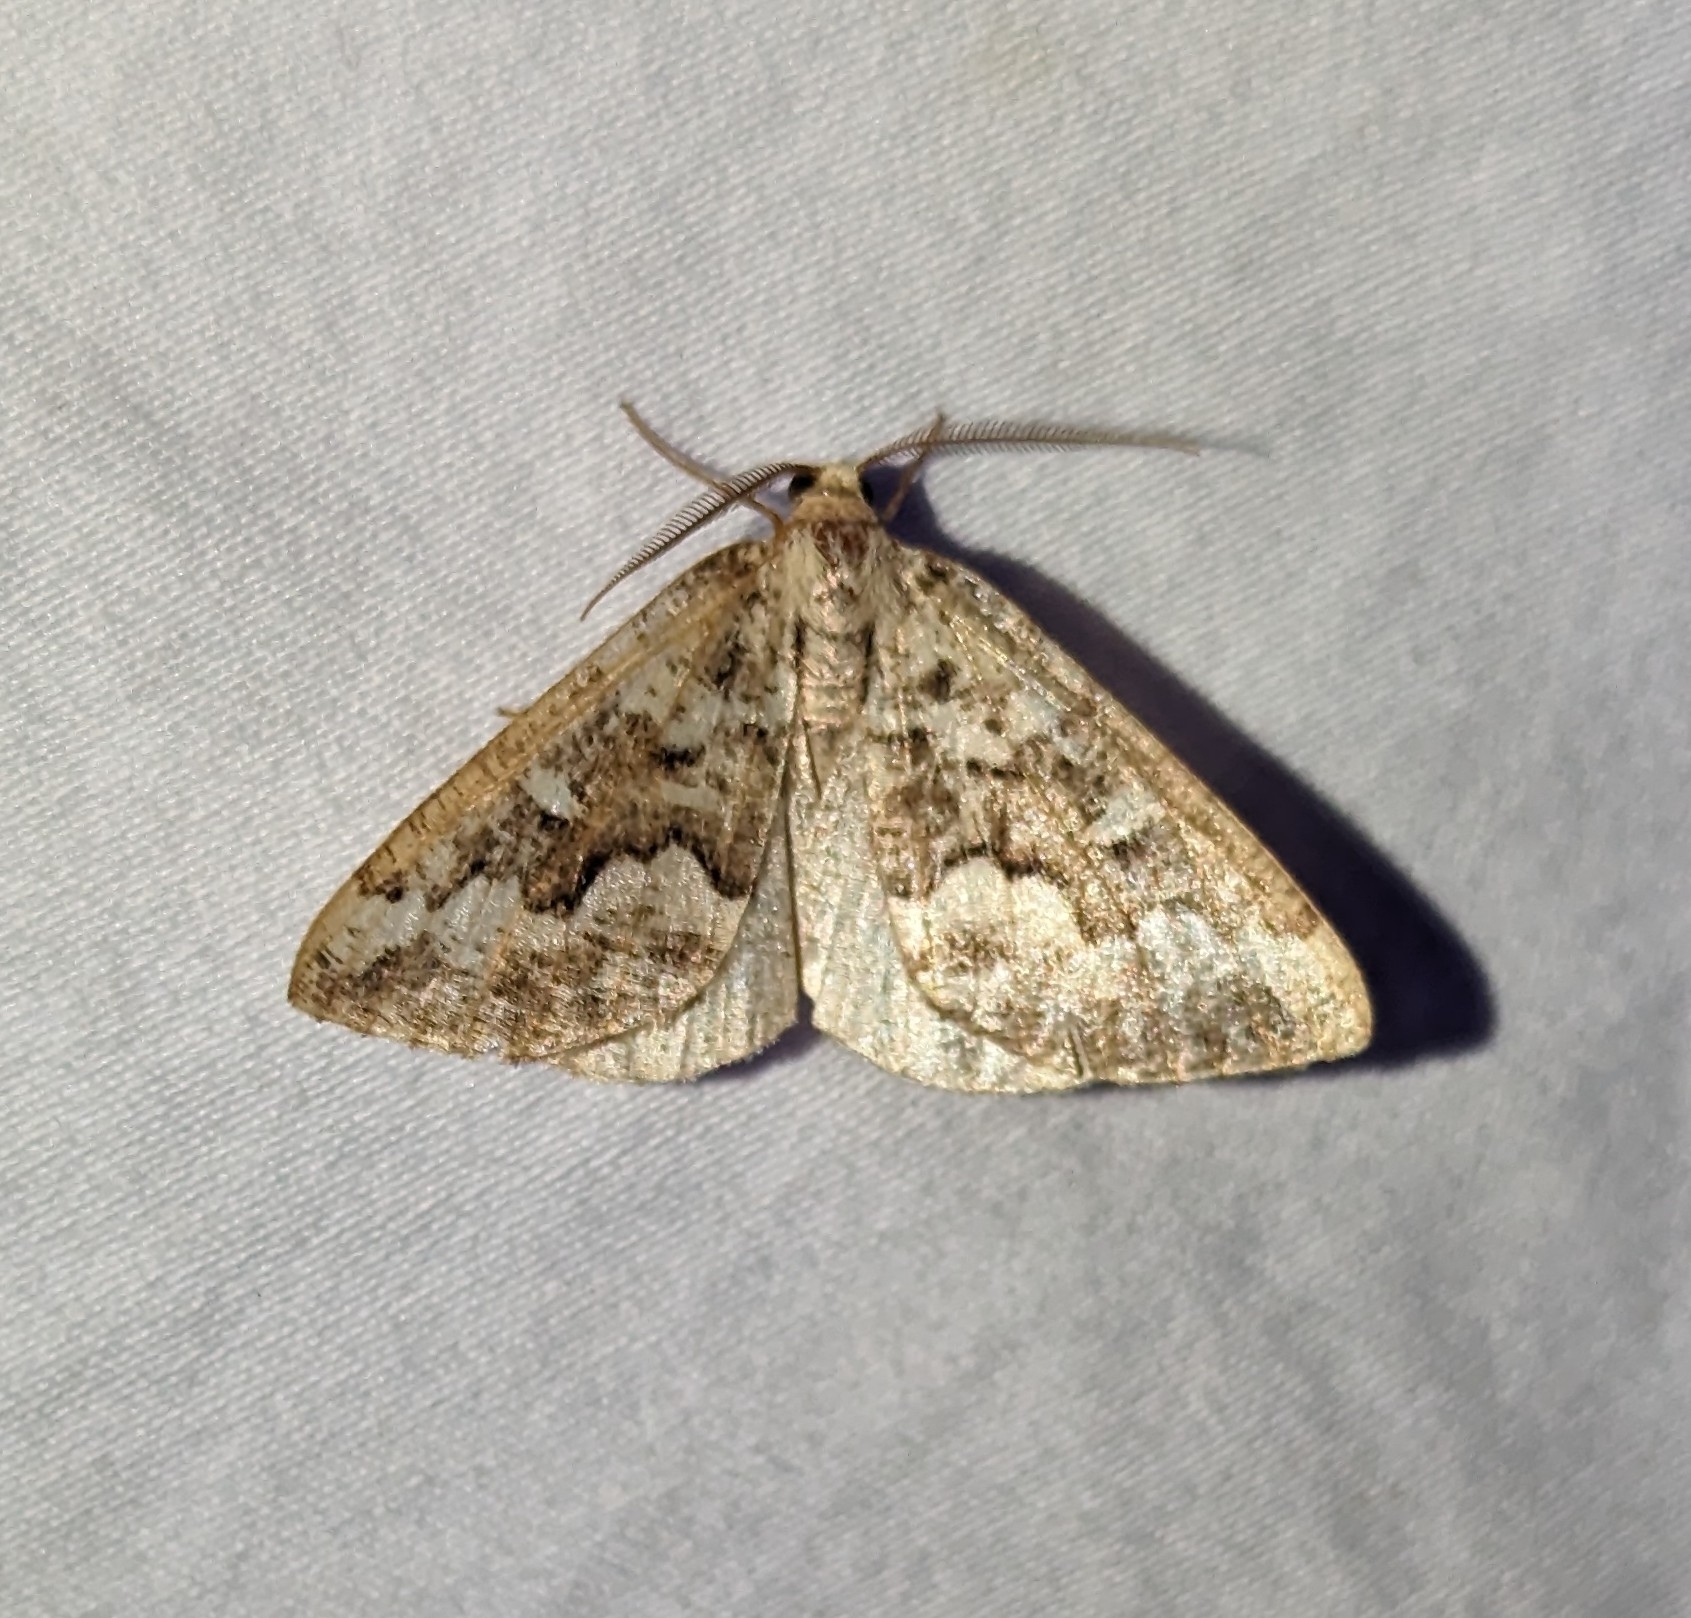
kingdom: Animalia
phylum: Arthropoda
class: Insecta
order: Lepidoptera
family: Geometridae
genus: Caripeta
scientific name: Caripeta divisata
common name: Gray spruce looper
